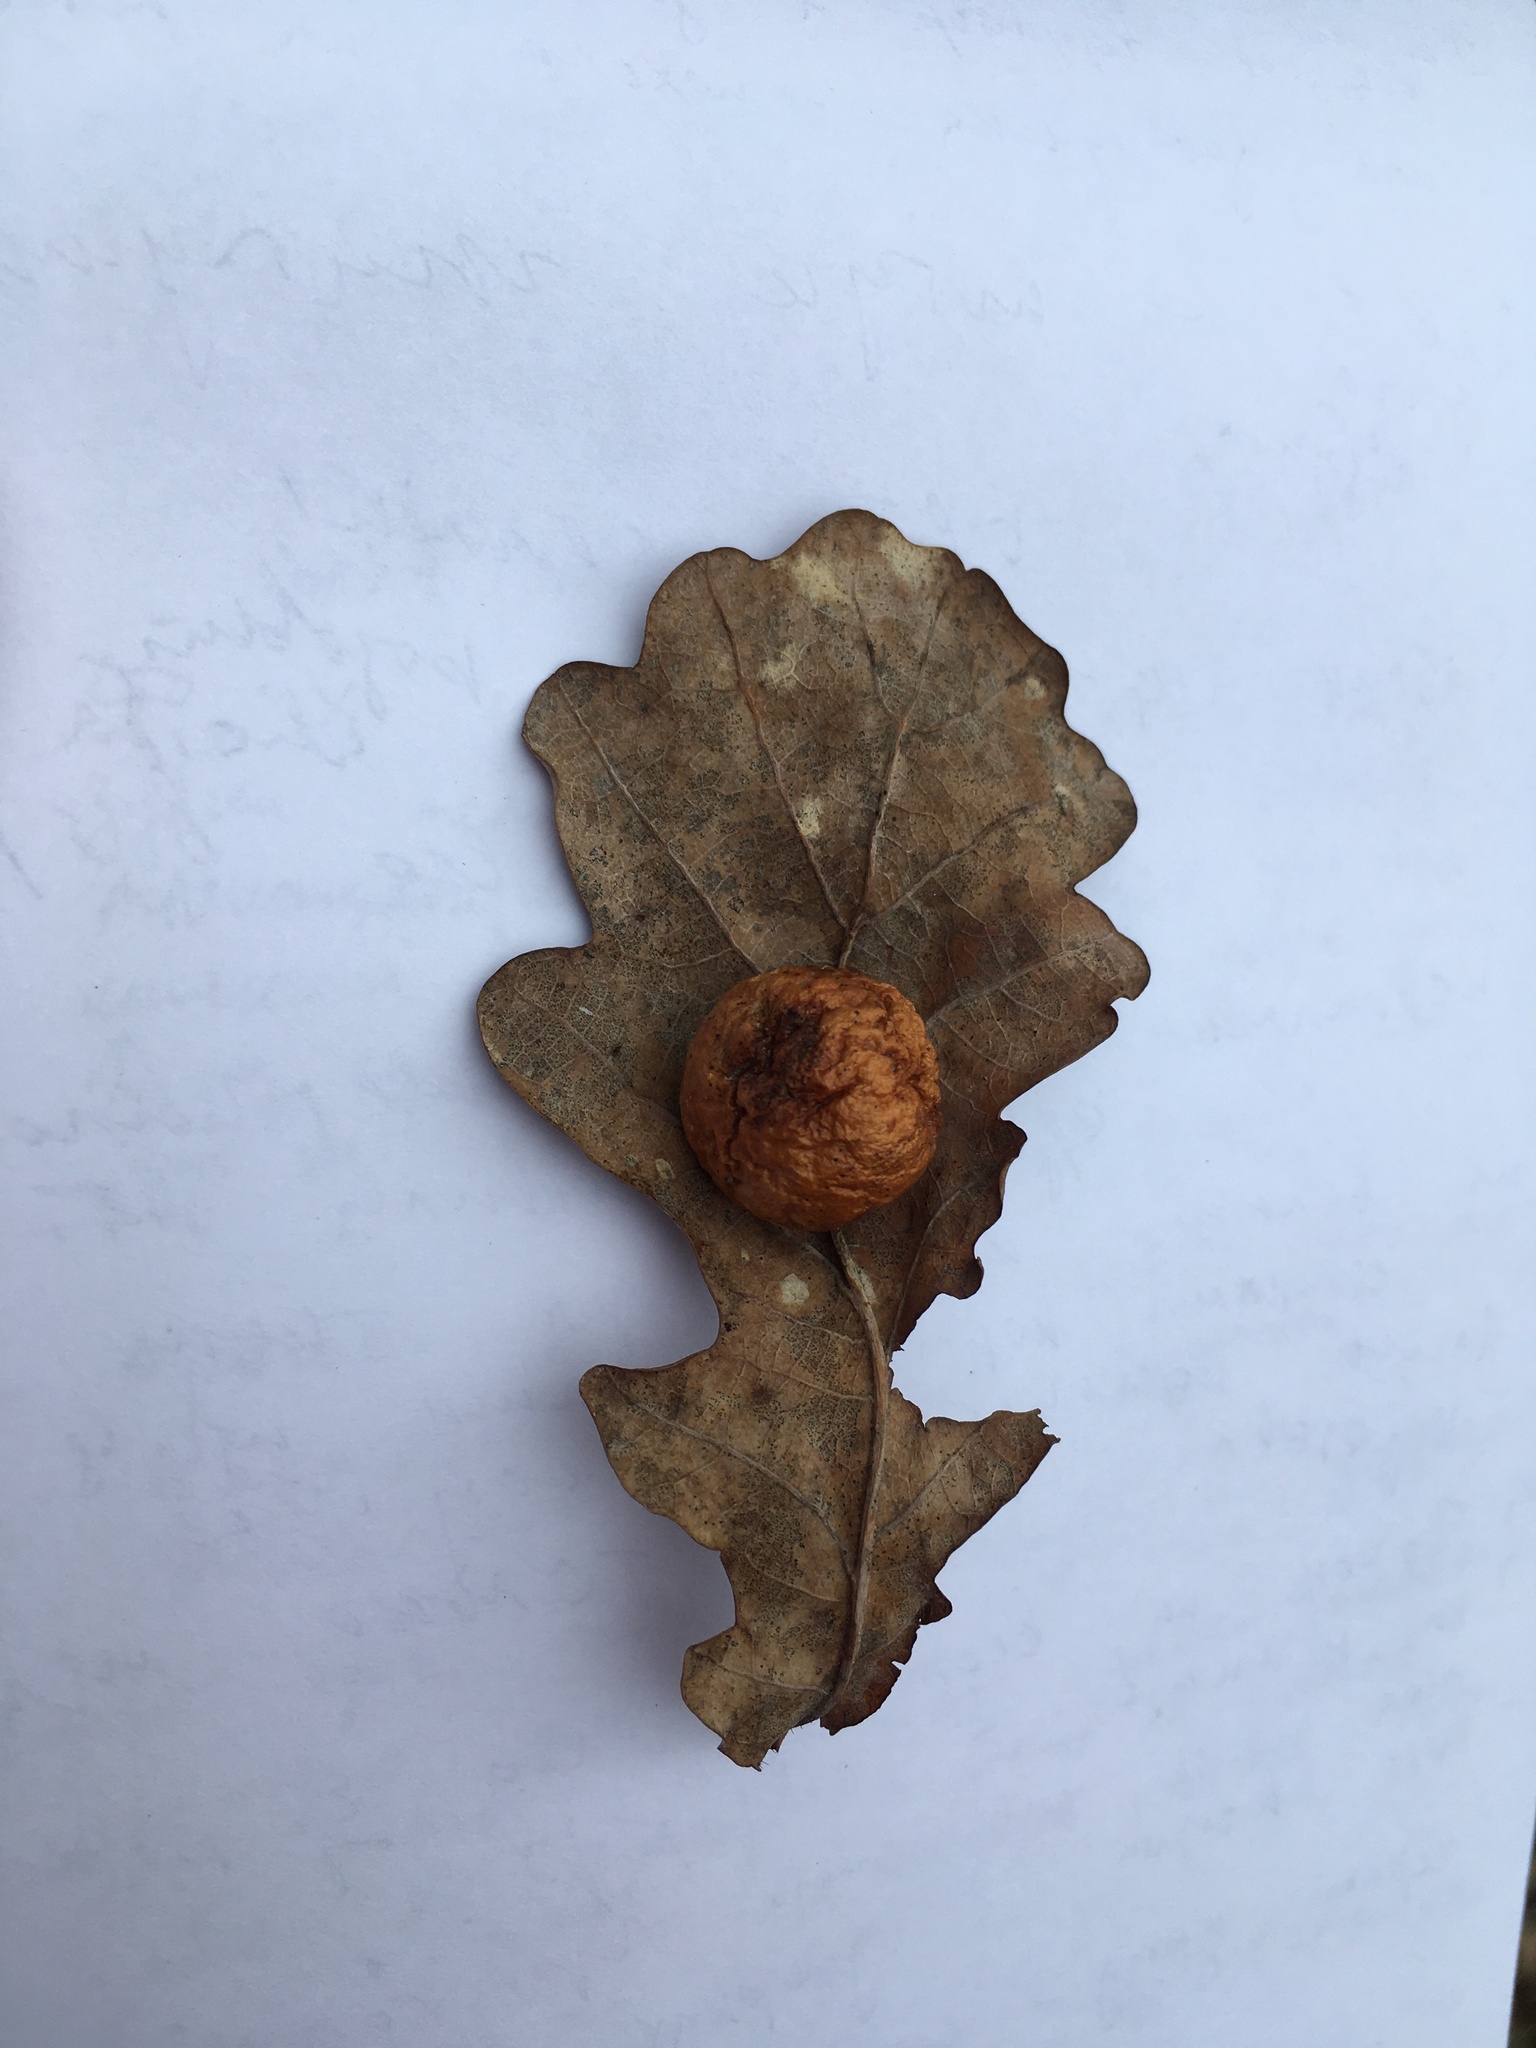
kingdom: Animalia
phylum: Arthropoda
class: Insecta
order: Hymenoptera
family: Cynipidae
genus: Cynips
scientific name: Cynips quercusfolii
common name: Cherry gall
